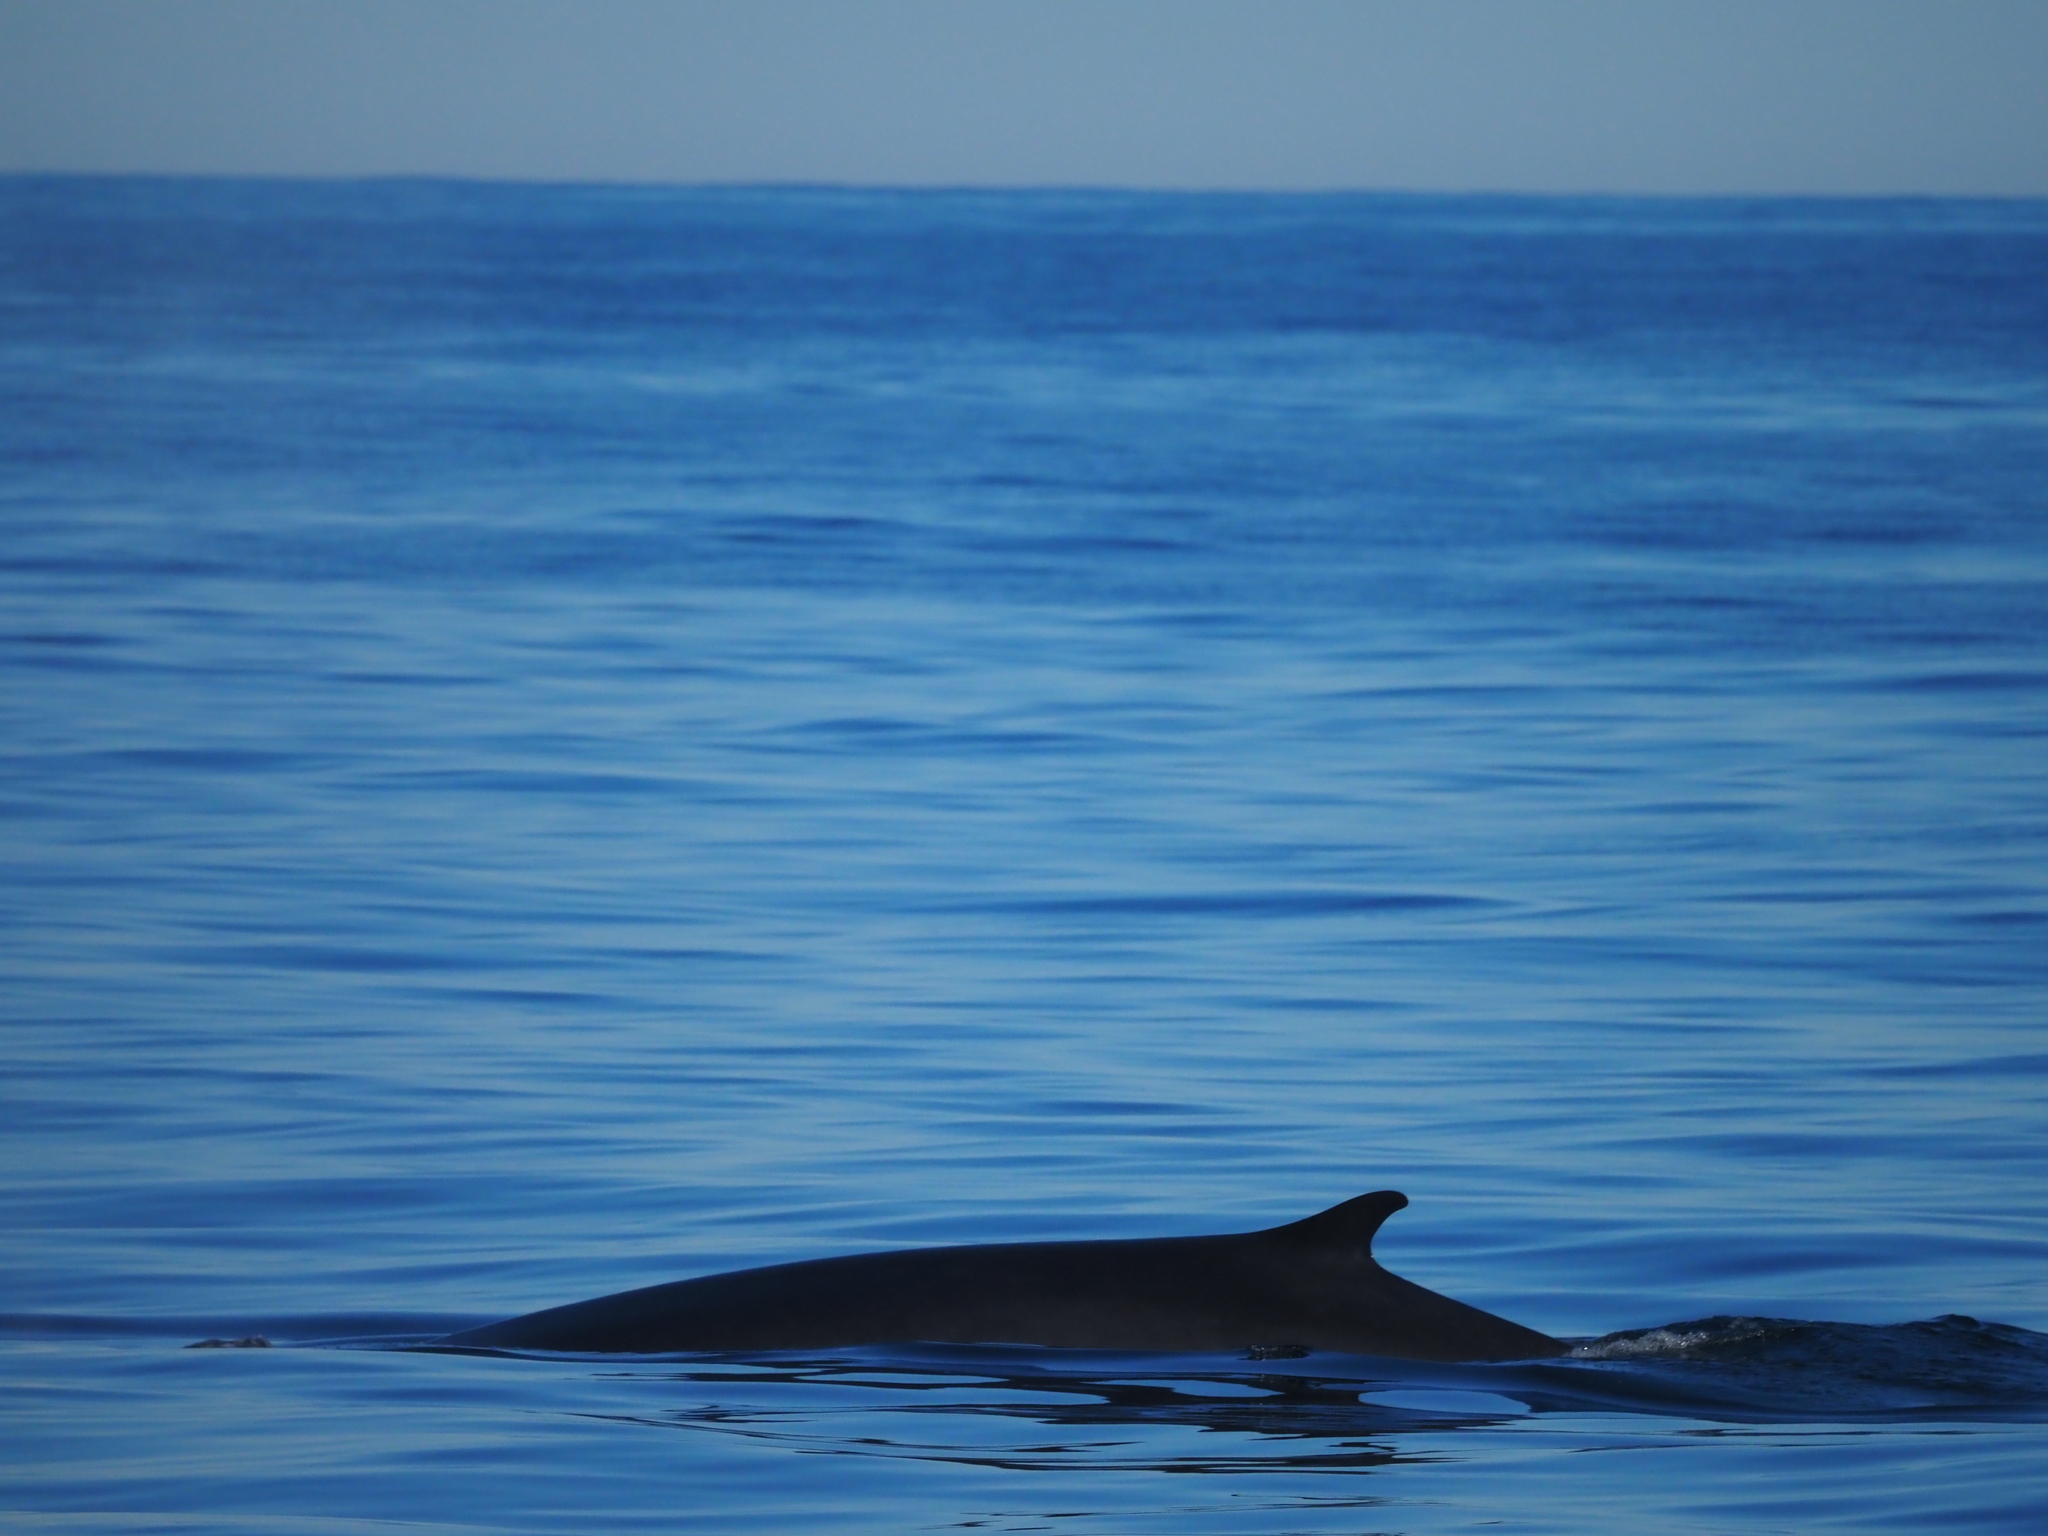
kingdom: Animalia
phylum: Chordata
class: Mammalia
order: Cetacea
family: Balaenopteridae
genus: Balaenoptera
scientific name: Balaenoptera acutorostrata
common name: Common minke whale
